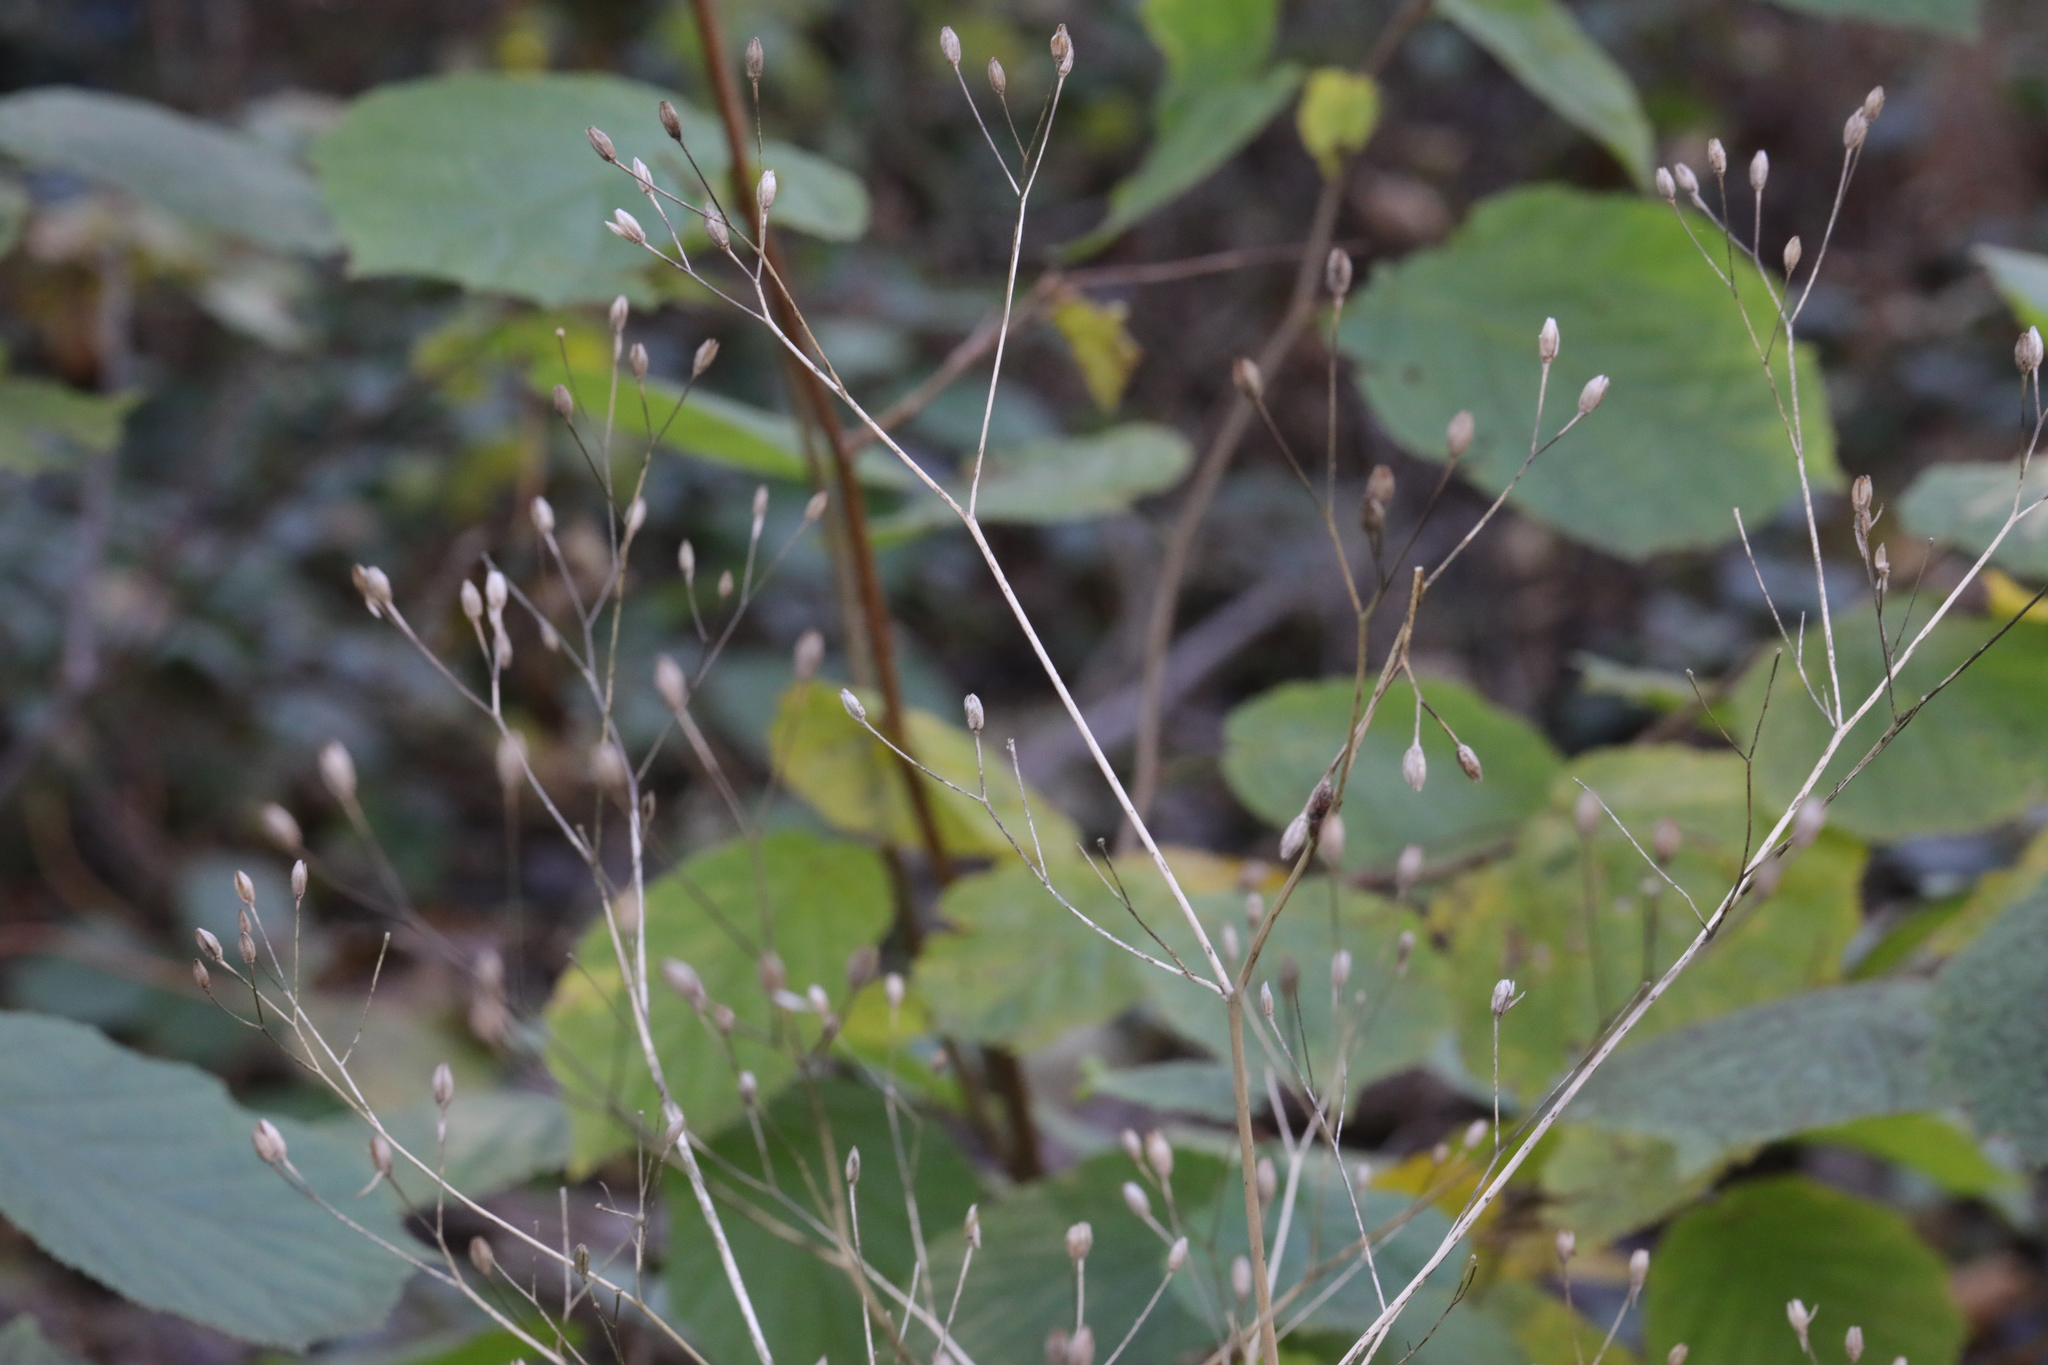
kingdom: Plantae
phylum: Tracheophyta
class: Magnoliopsida
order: Asterales
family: Asteraceae
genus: Lapsana
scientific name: Lapsana communis
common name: Nipplewort
